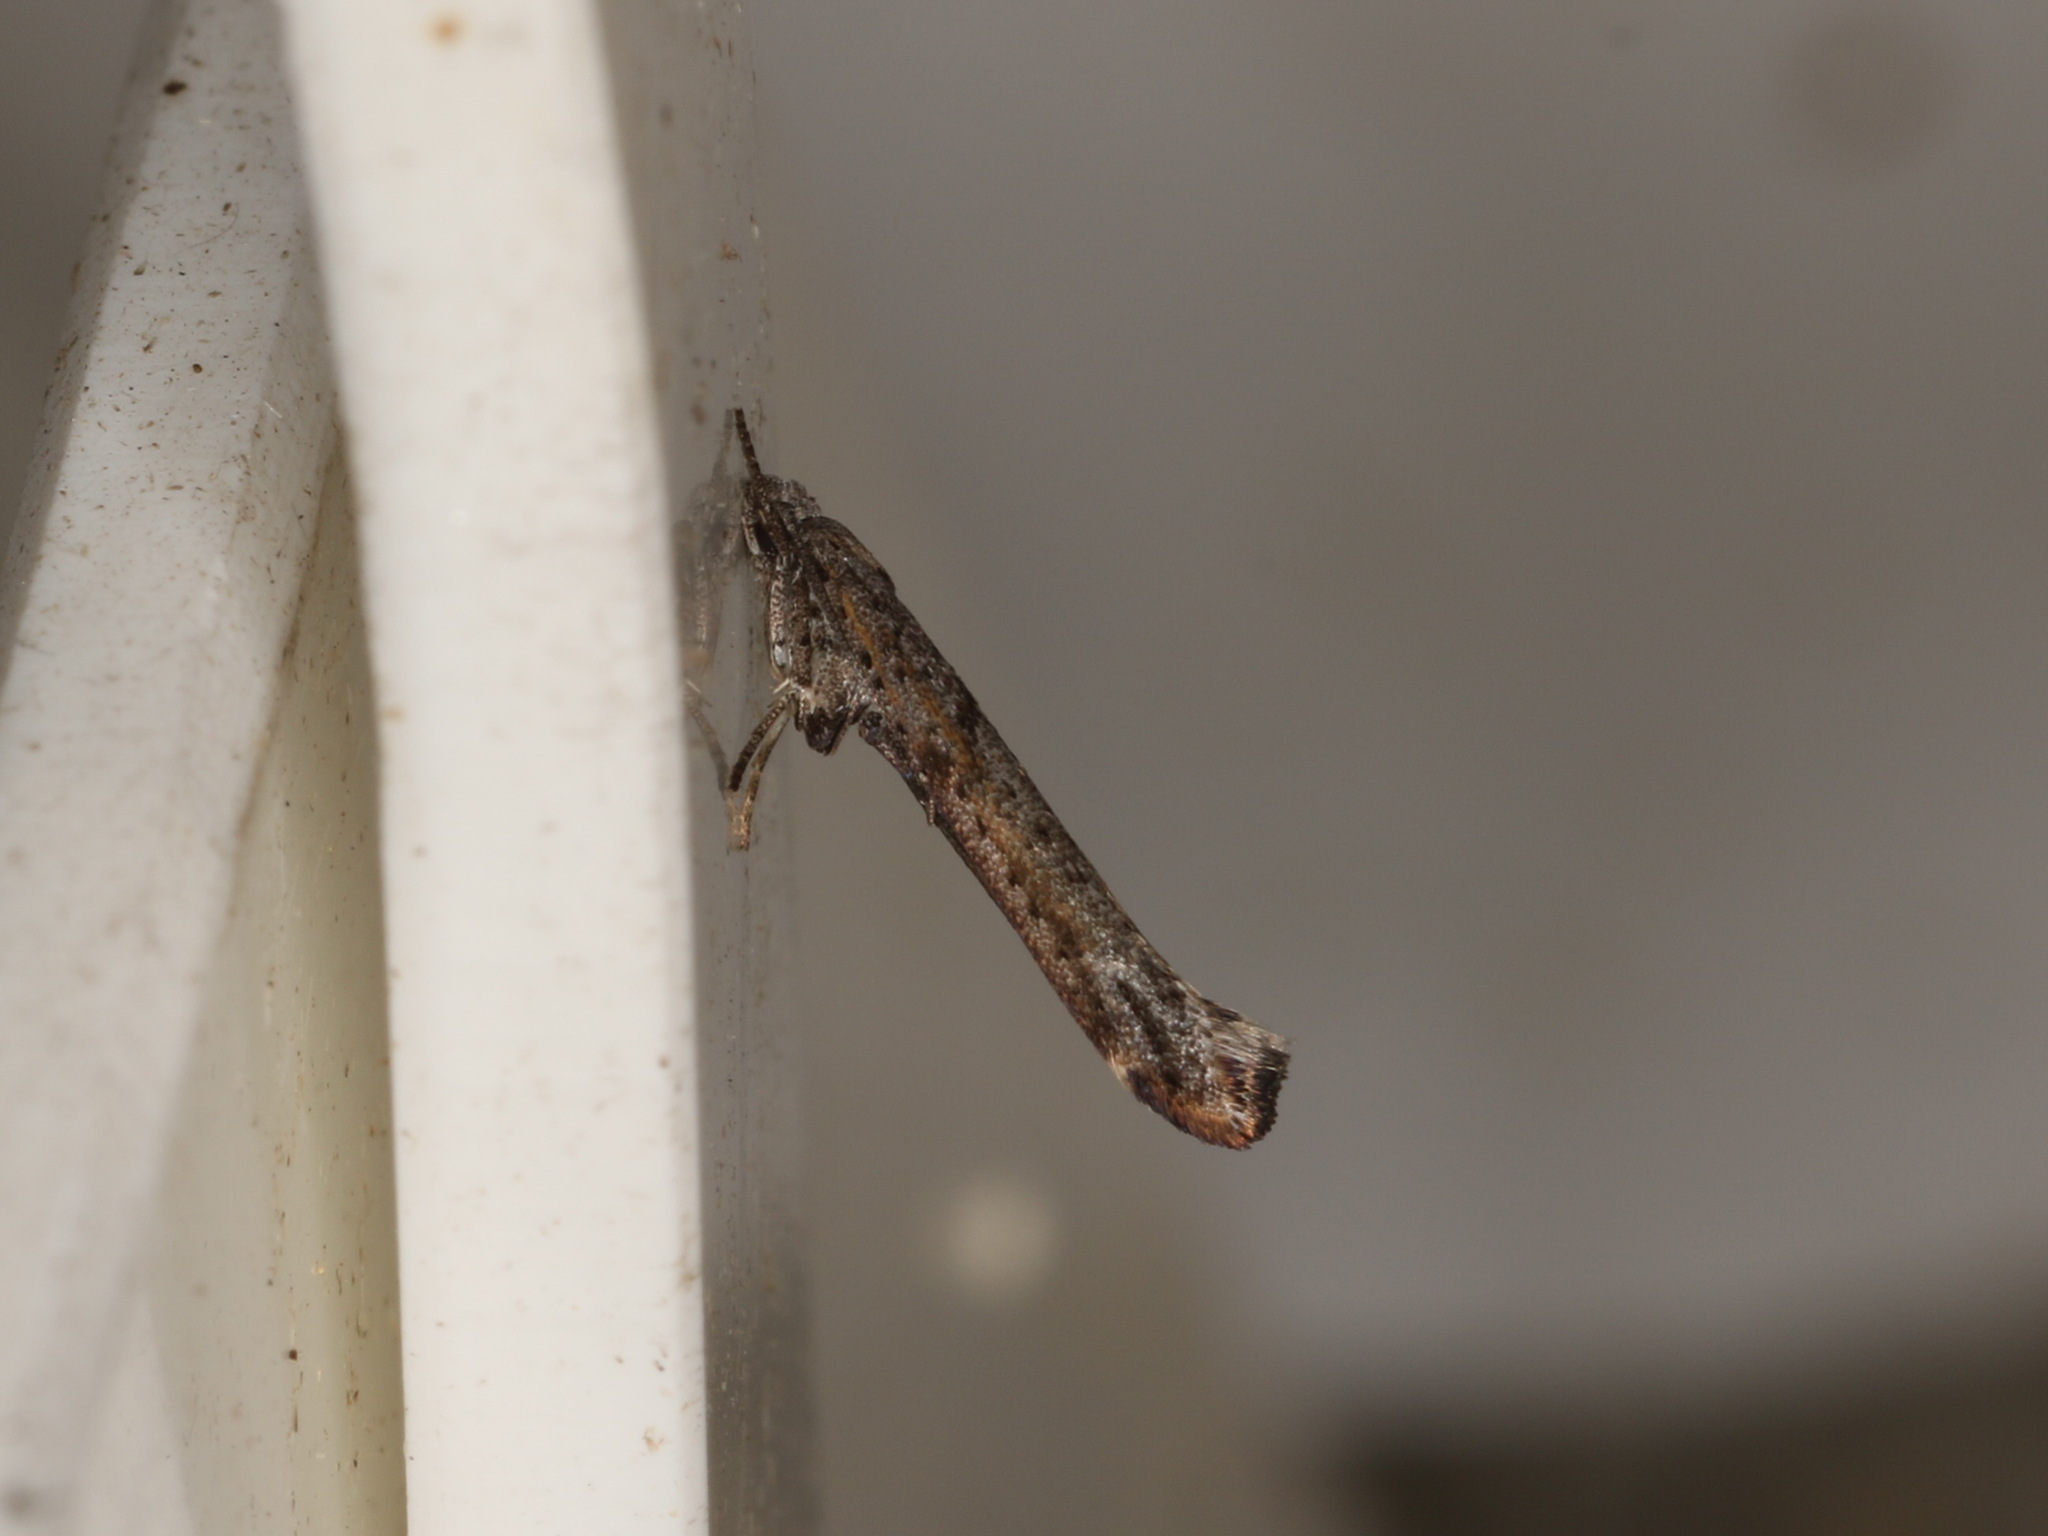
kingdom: Animalia
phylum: Arthropoda
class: Insecta
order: Lepidoptera
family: Yponomeutidae
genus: Zelleria
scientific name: Zelleria cynetica
